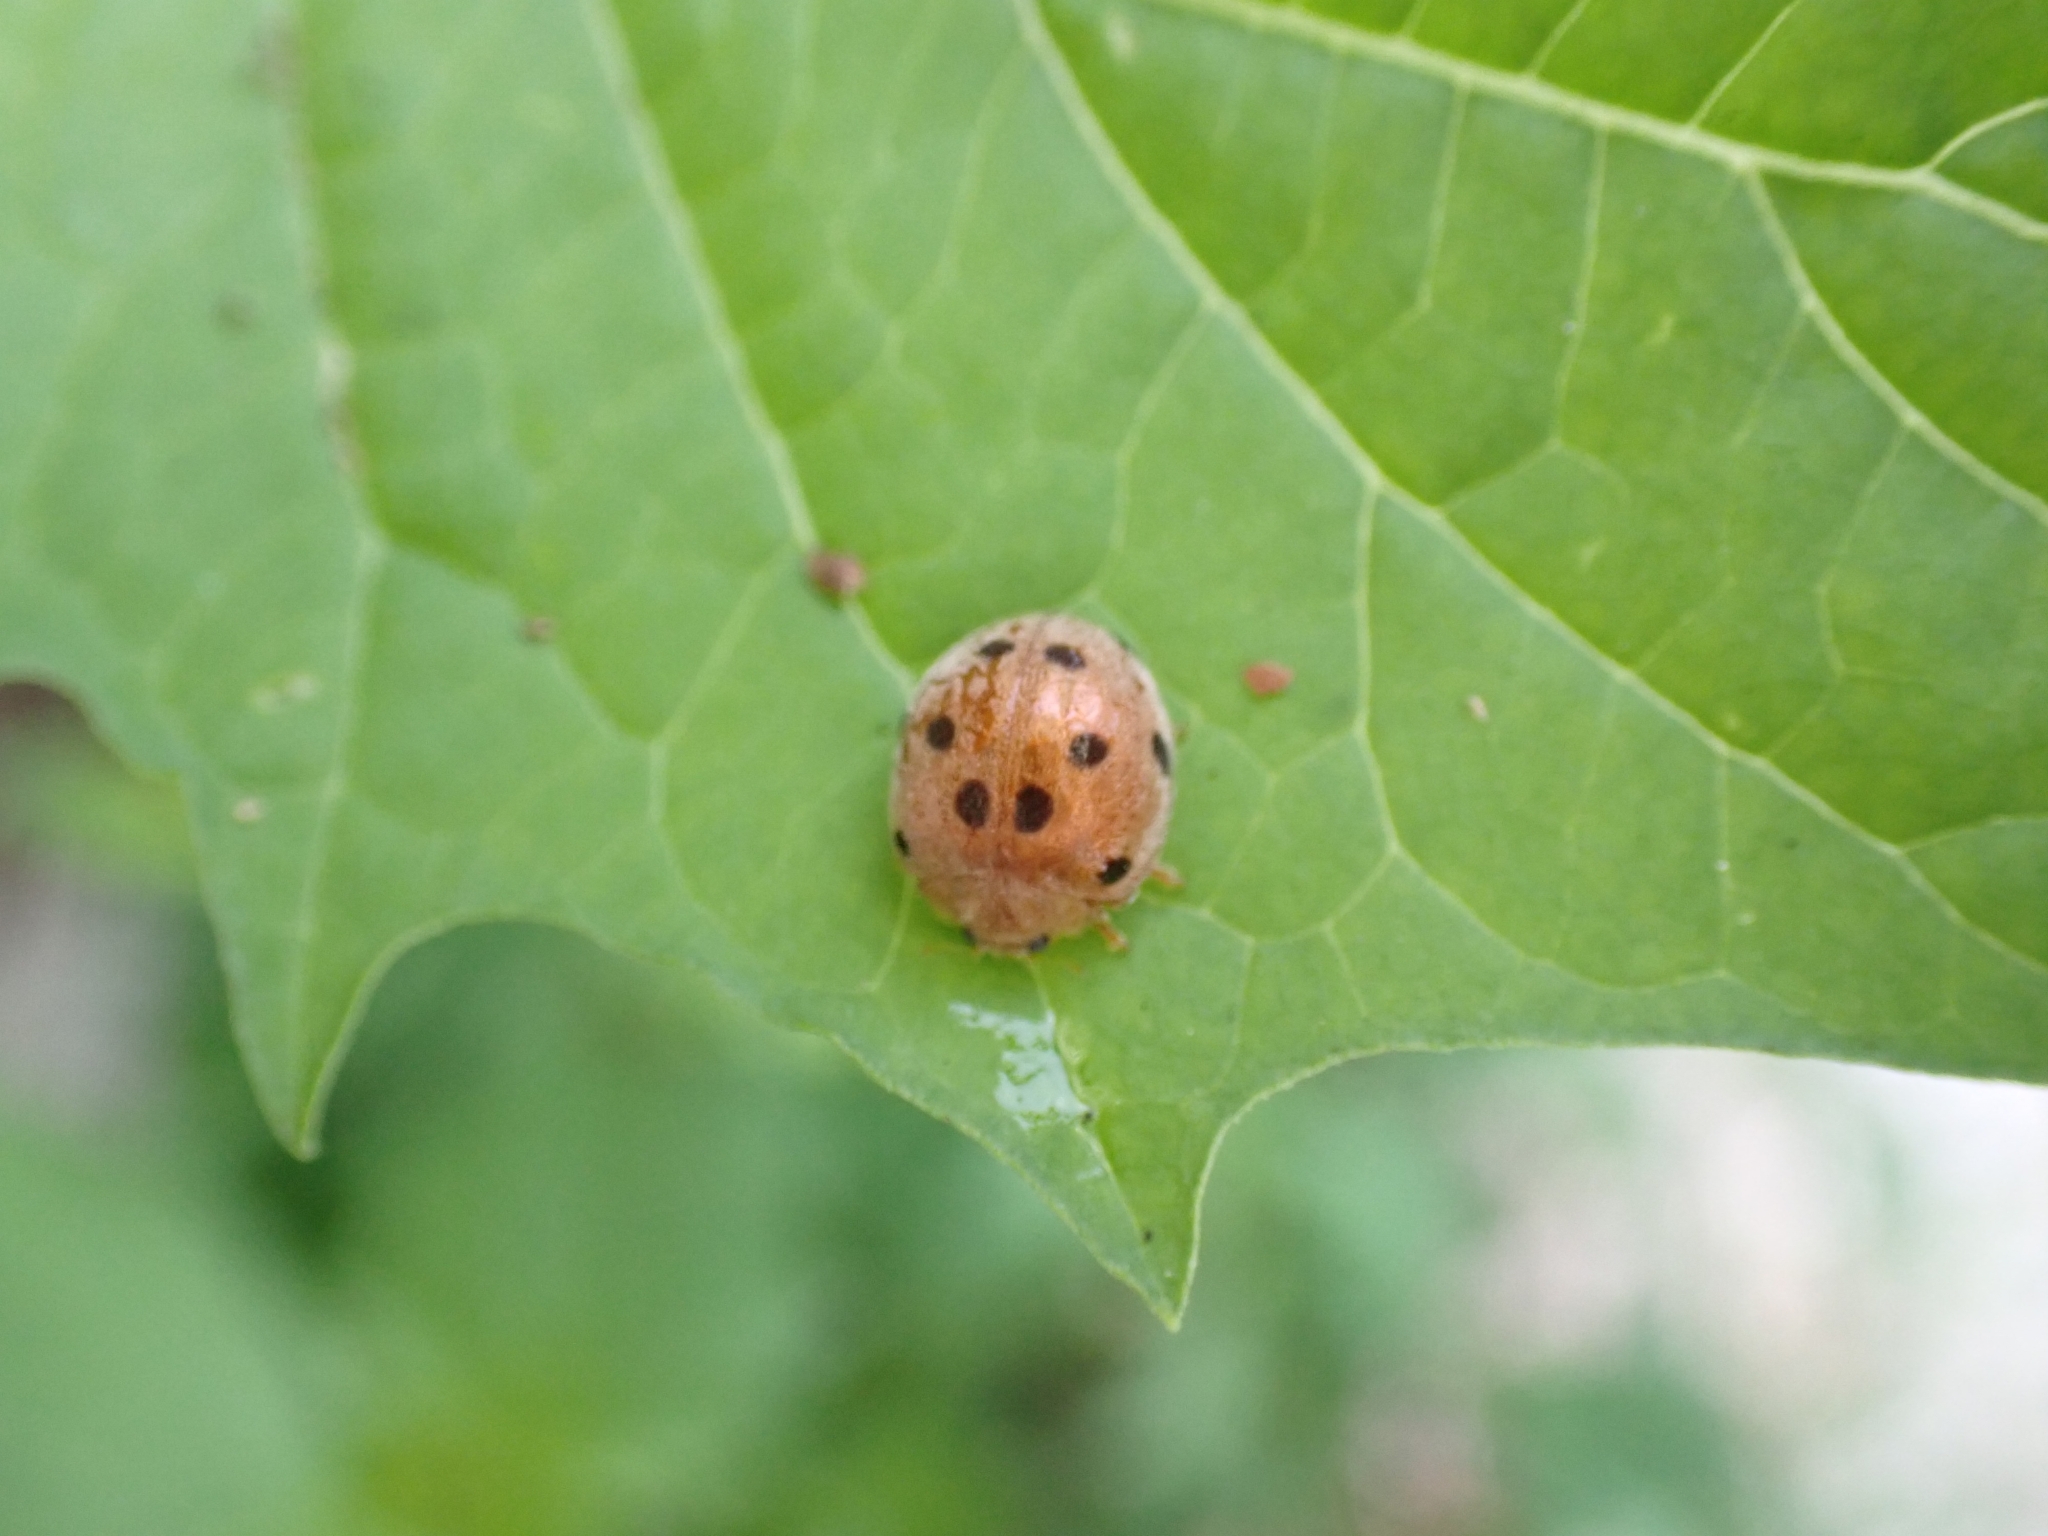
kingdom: Animalia
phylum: Arthropoda
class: Insecta
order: Coleoptera
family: Coccinellidae
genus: Henosepilachna
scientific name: Henosepilachna boisduvali
